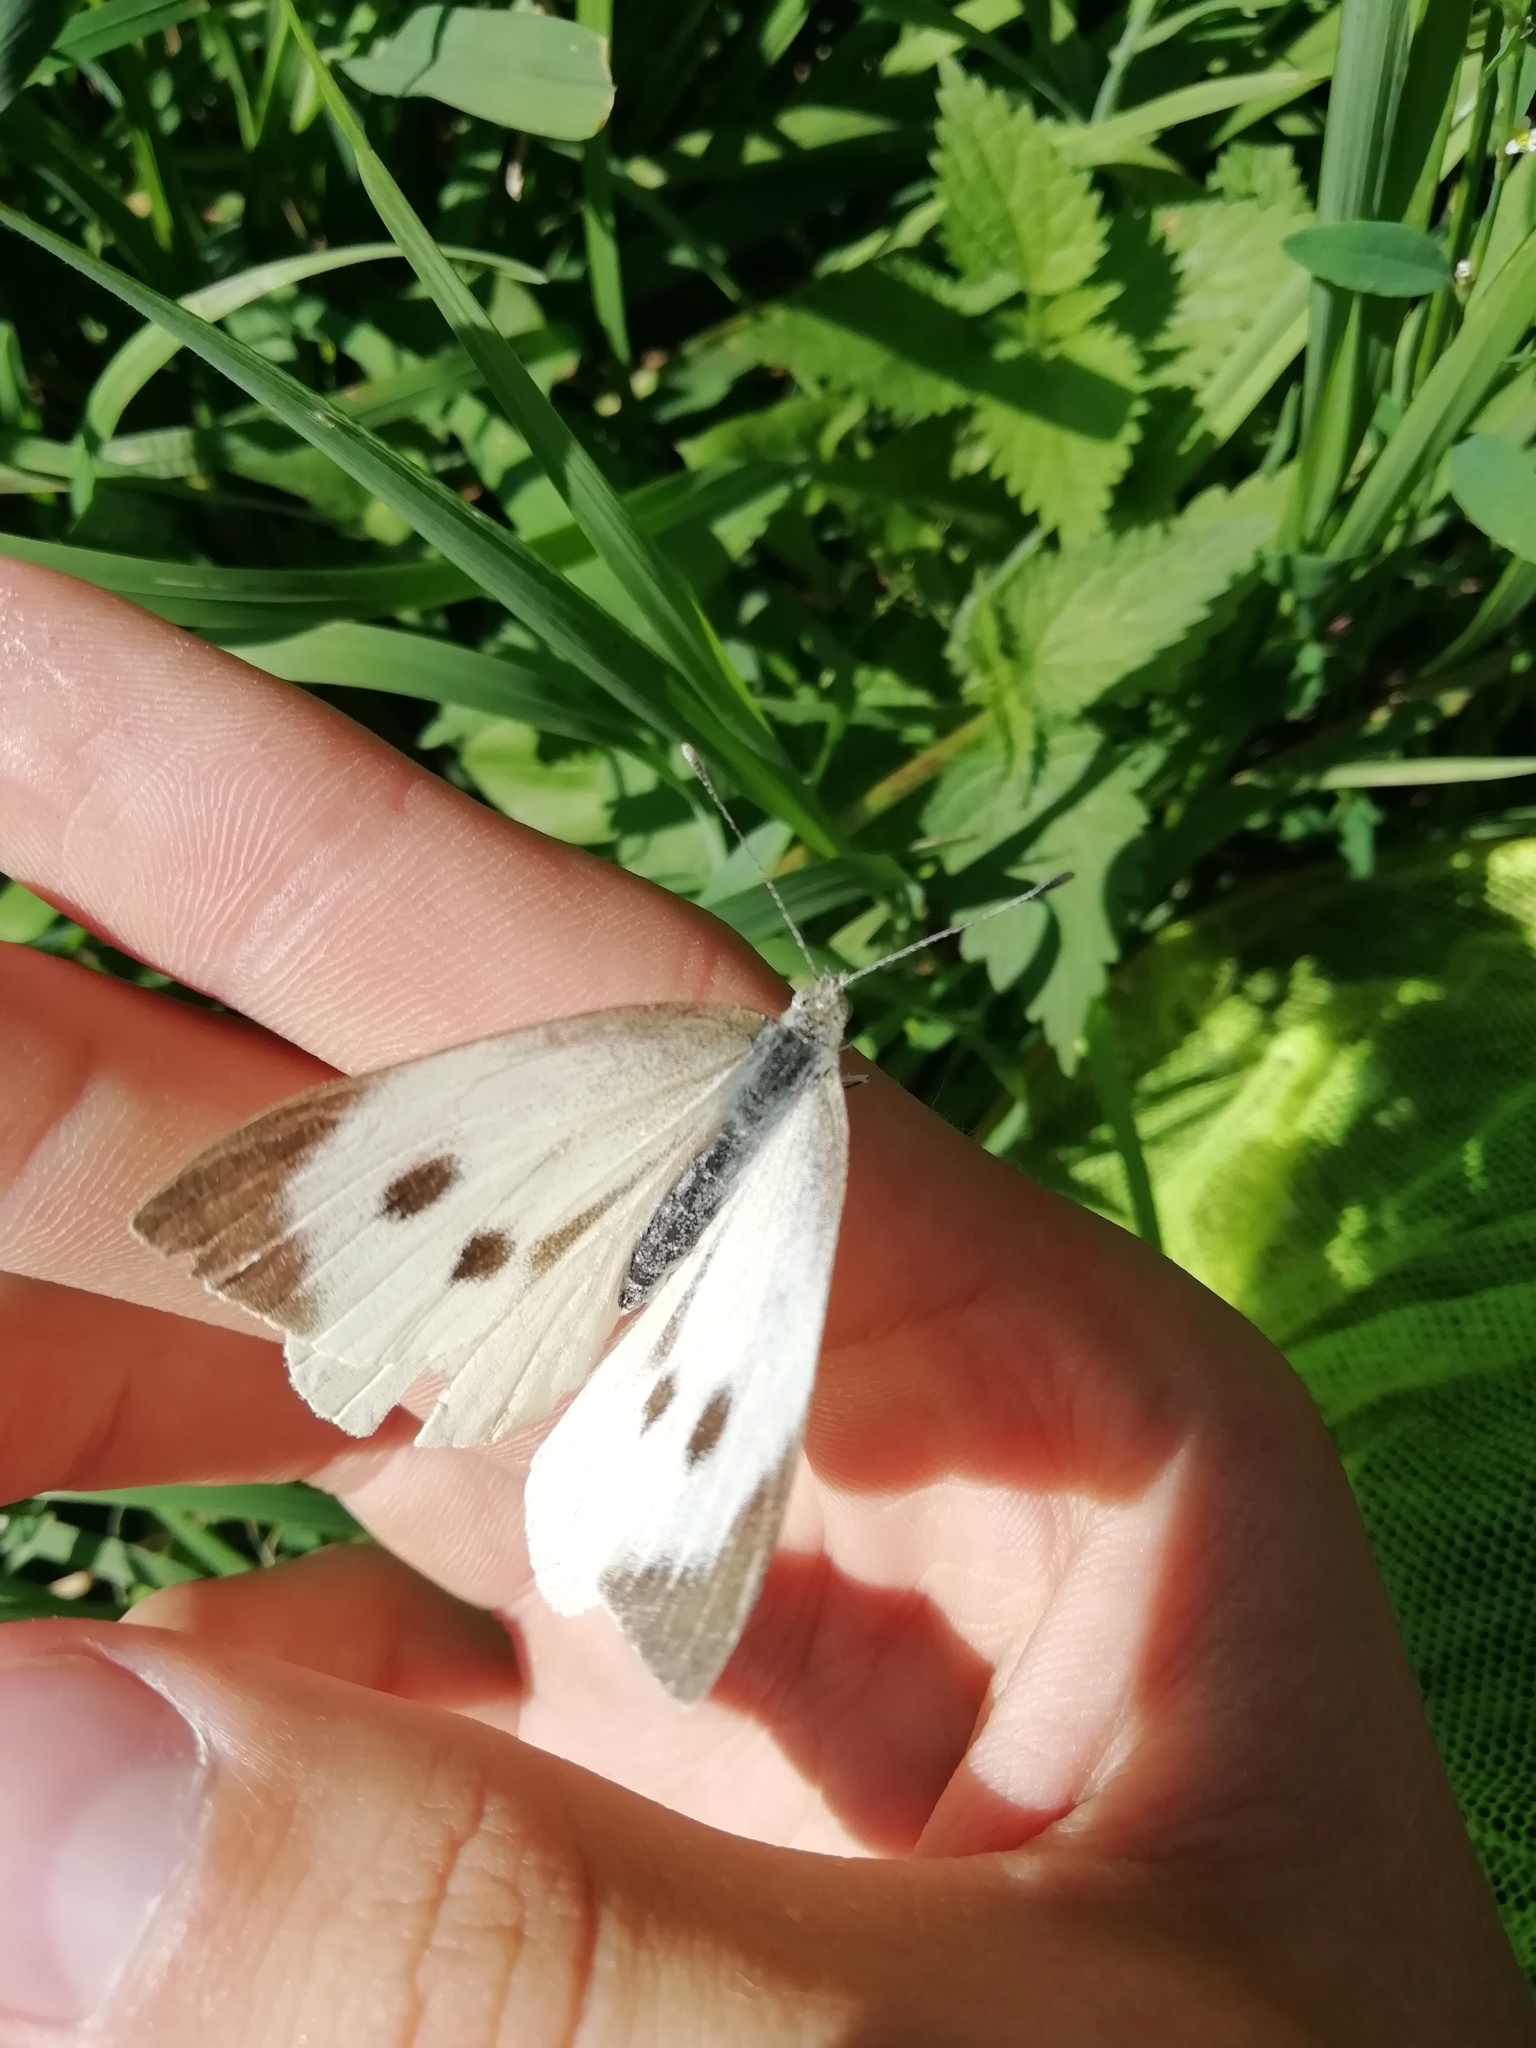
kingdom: Animalia
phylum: Arthropoda
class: Insecta
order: Lepidoptera
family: Pieridae
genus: Pieris
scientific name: Pieris brassicae
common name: Large white
